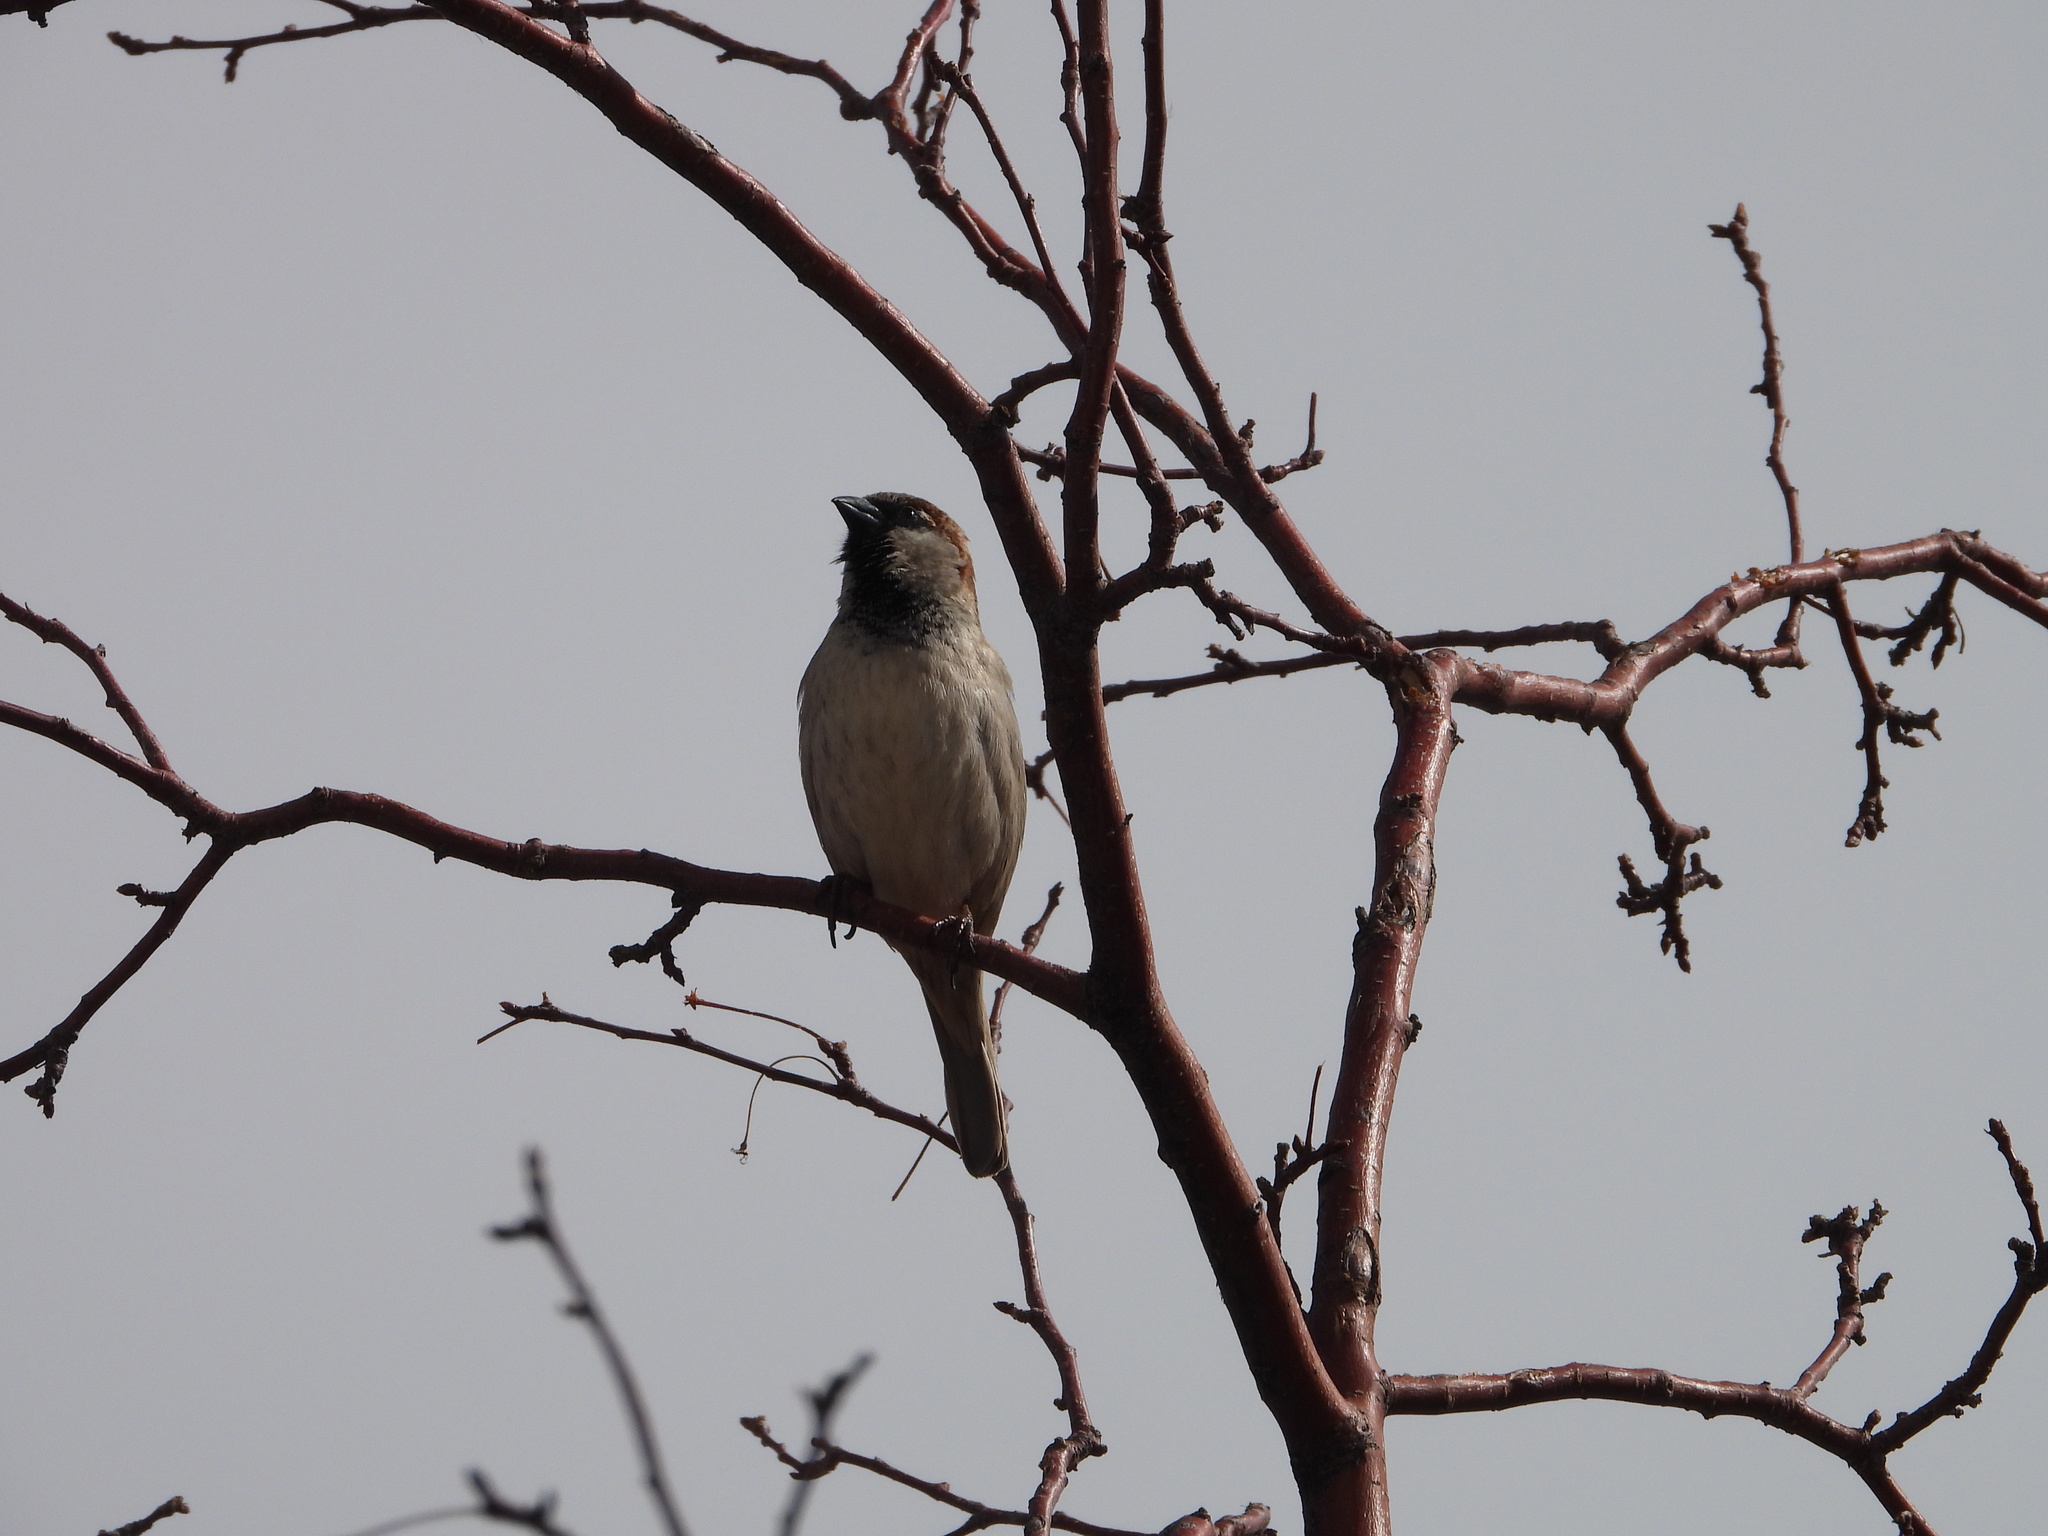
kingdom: Animalia
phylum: Chordata
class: Aves
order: Passeriformes
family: Passeridae
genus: Passer
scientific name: Passer domesticus
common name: House sparrow
